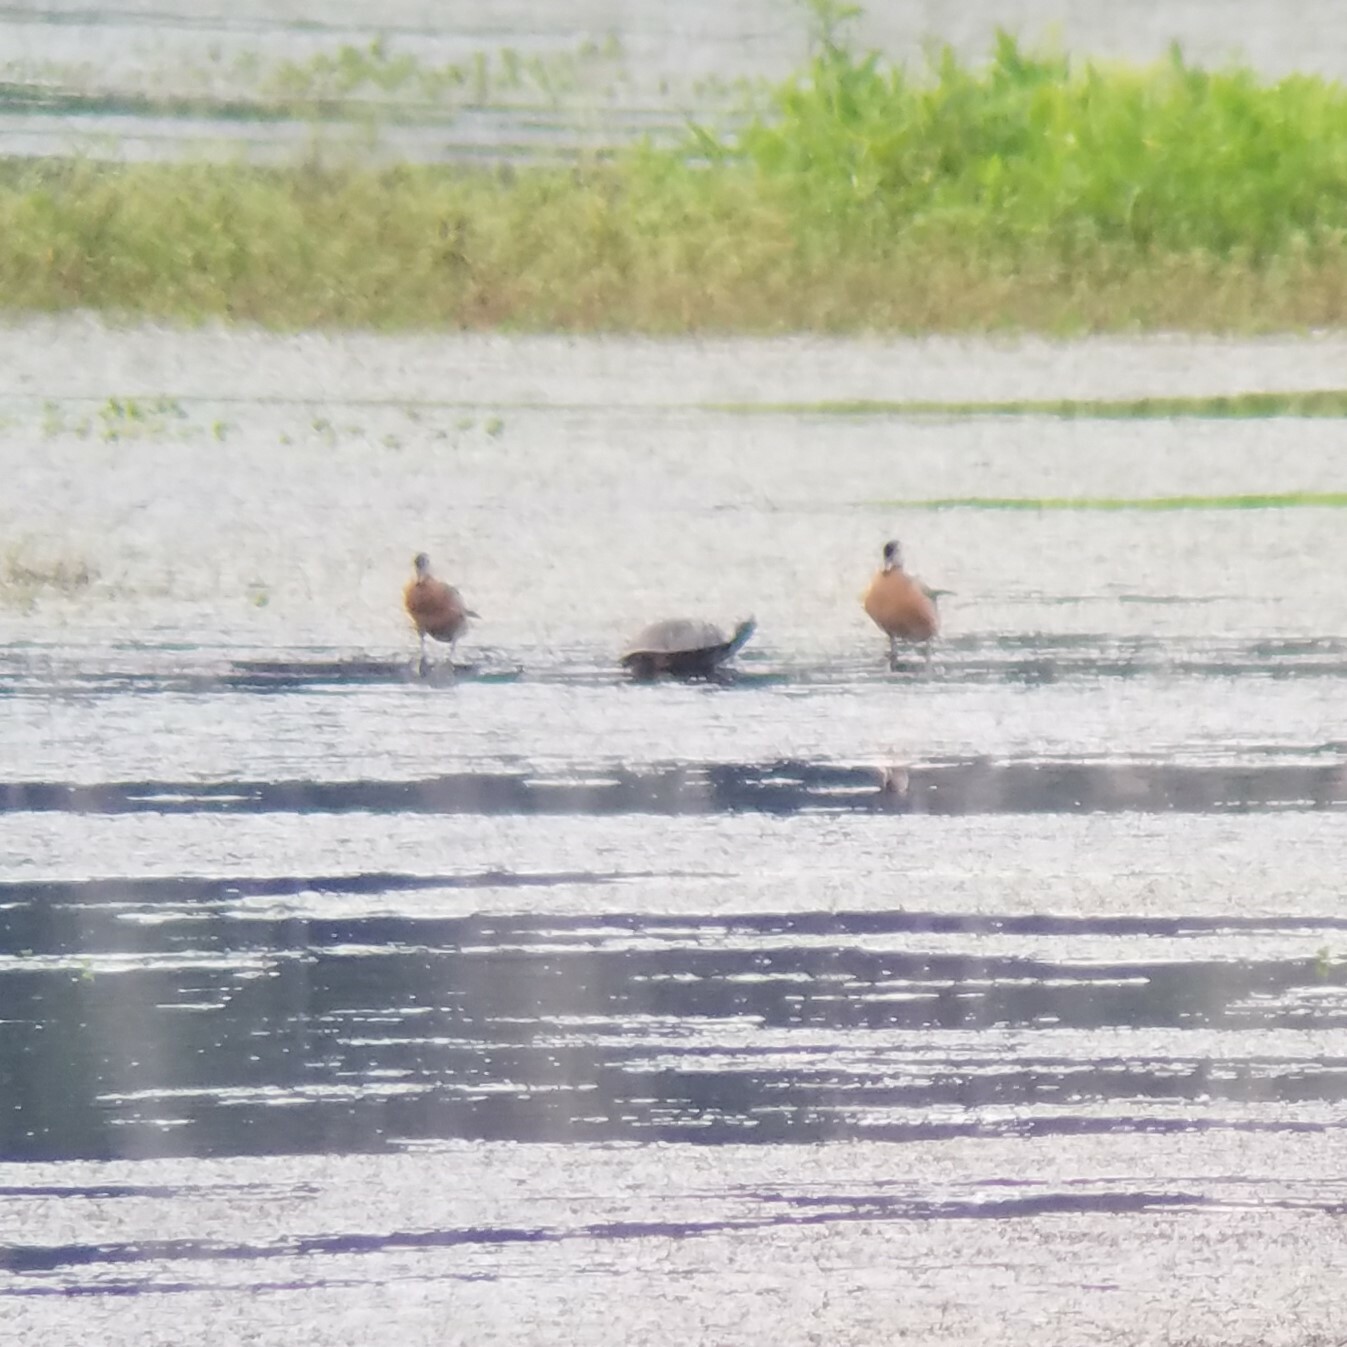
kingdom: Animalia
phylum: Chordata
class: Aves
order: Anseriformes
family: Anatidae
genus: Aix
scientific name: Aix sponsa
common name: Wood duck
